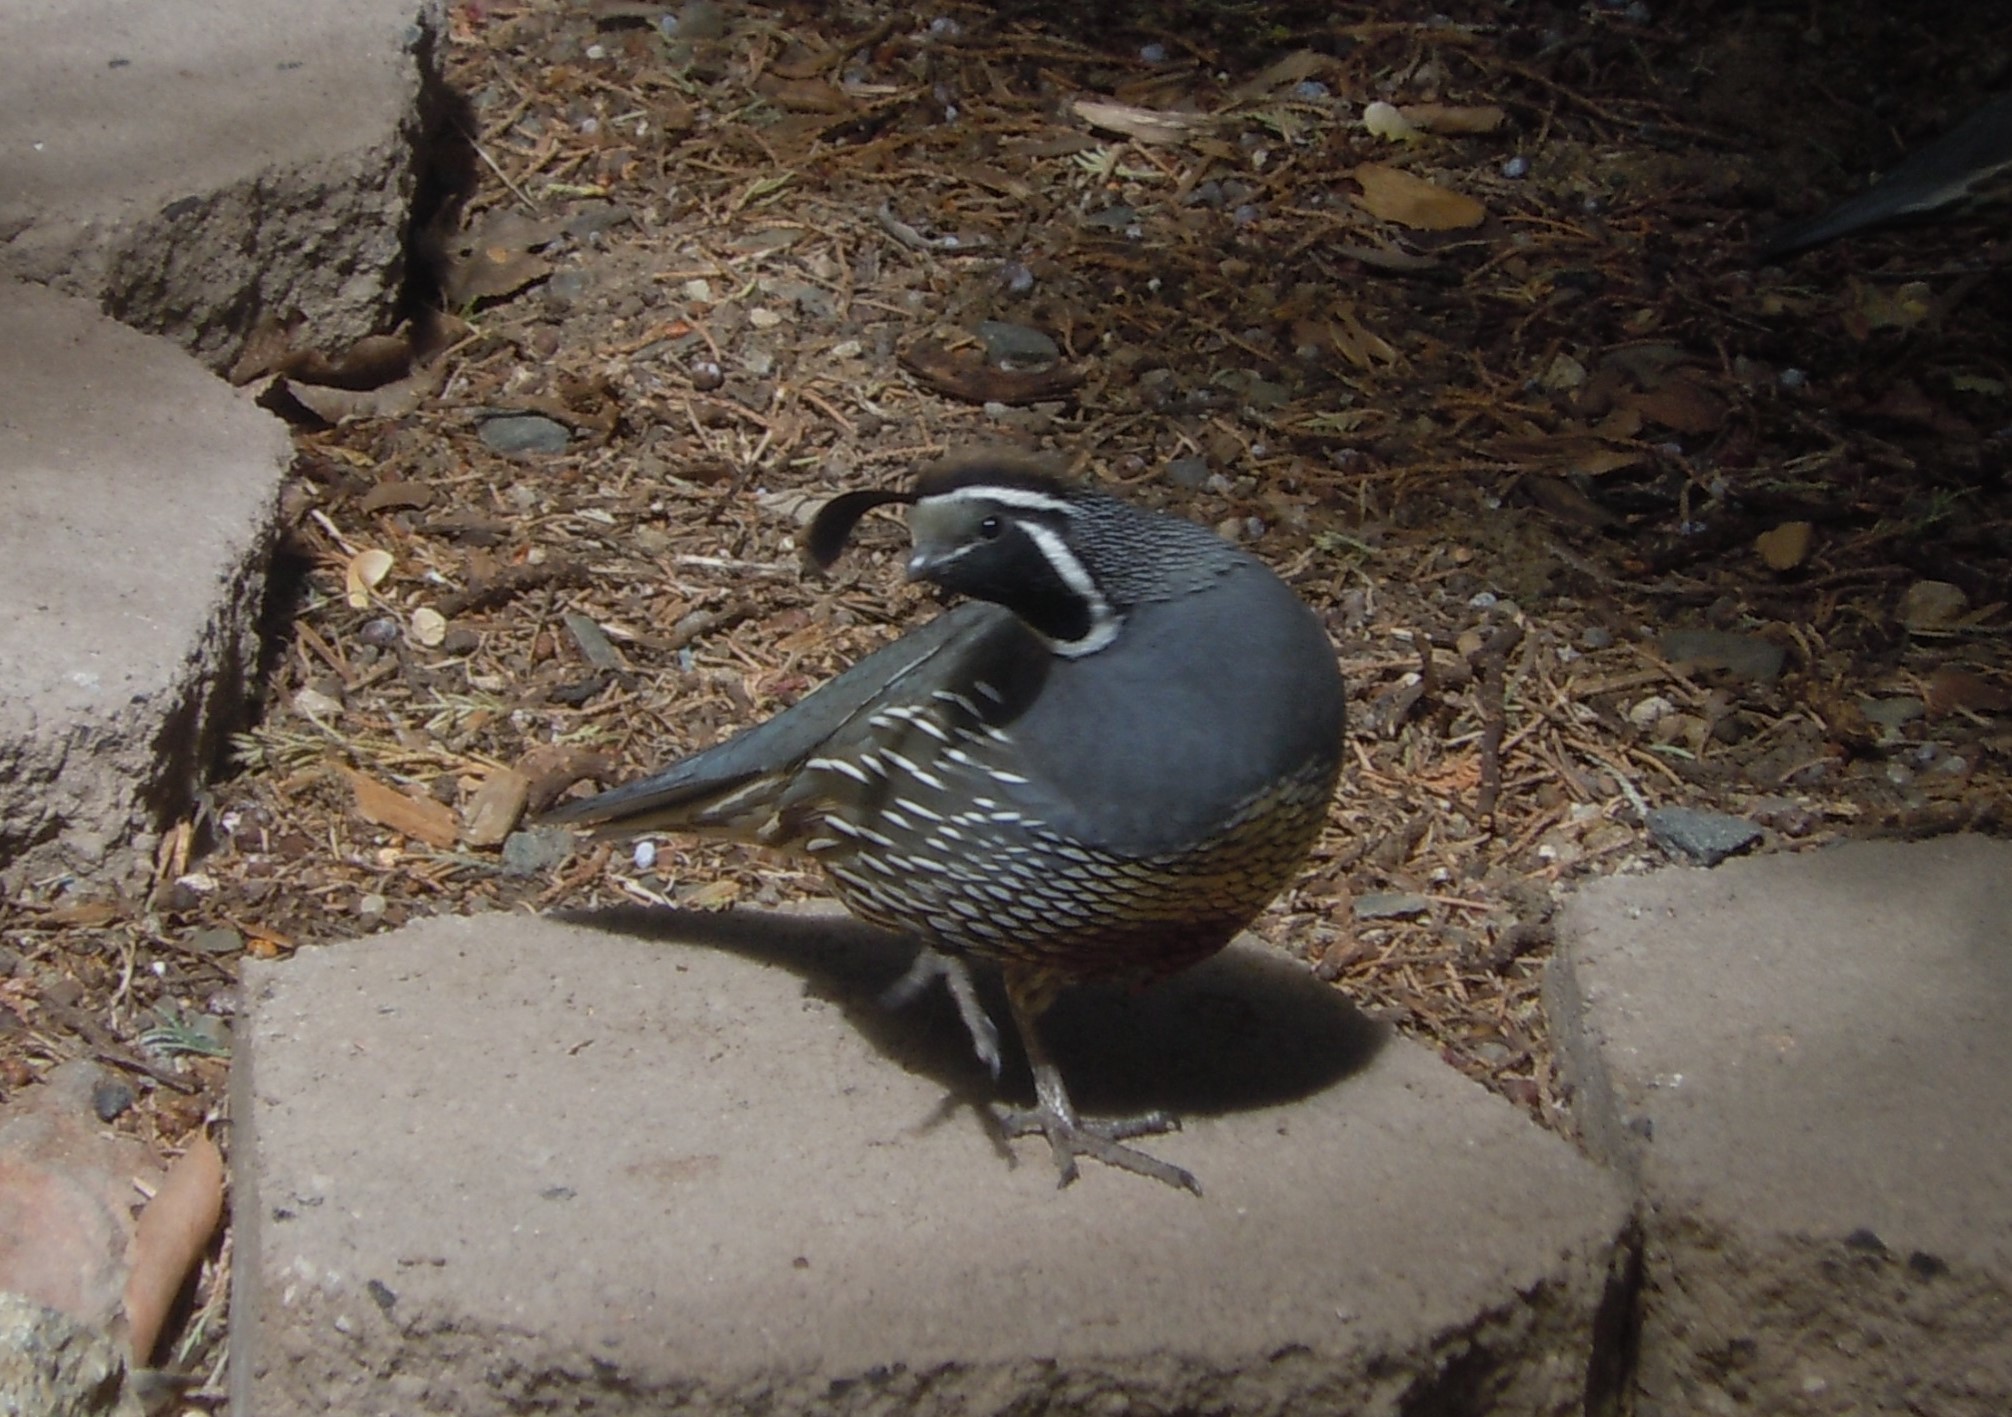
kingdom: Animalia
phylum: Chordata
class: Aves
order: Galliformes
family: Odontophoridae
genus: Callipepla
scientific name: Callipepla californica
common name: California quail
